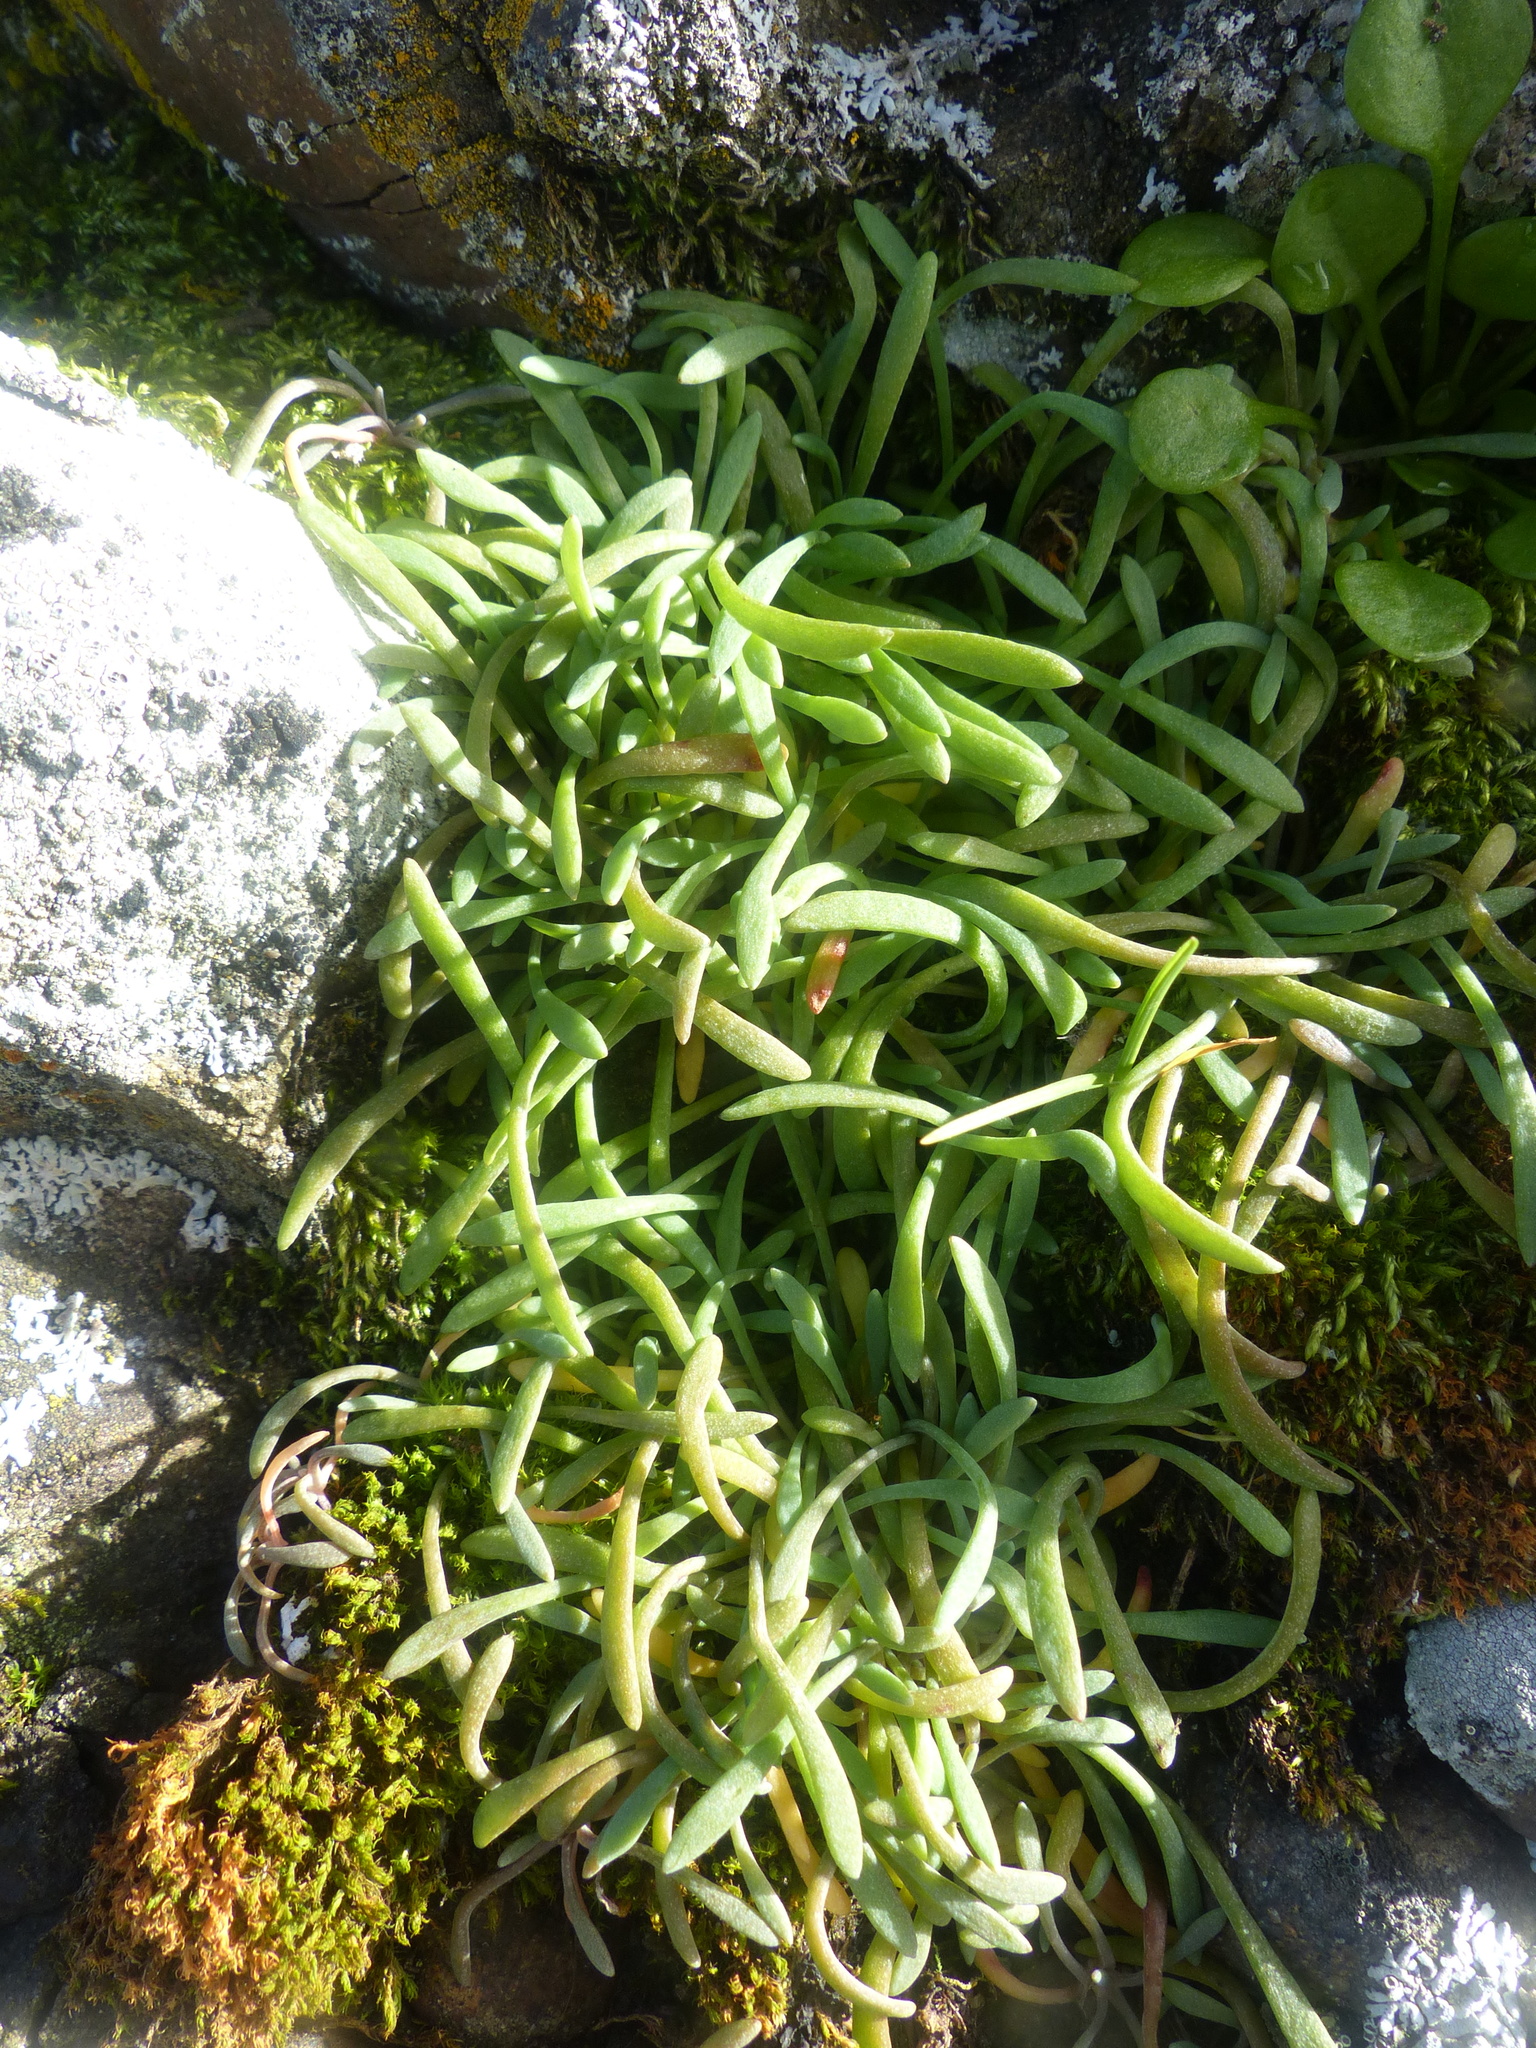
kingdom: Plantae
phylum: Tracheophyta
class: Magnoliopsida
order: Caryophyllales
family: Montiaceae
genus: Claytonia
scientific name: Claytonia exigua
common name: Pale spring beauty
